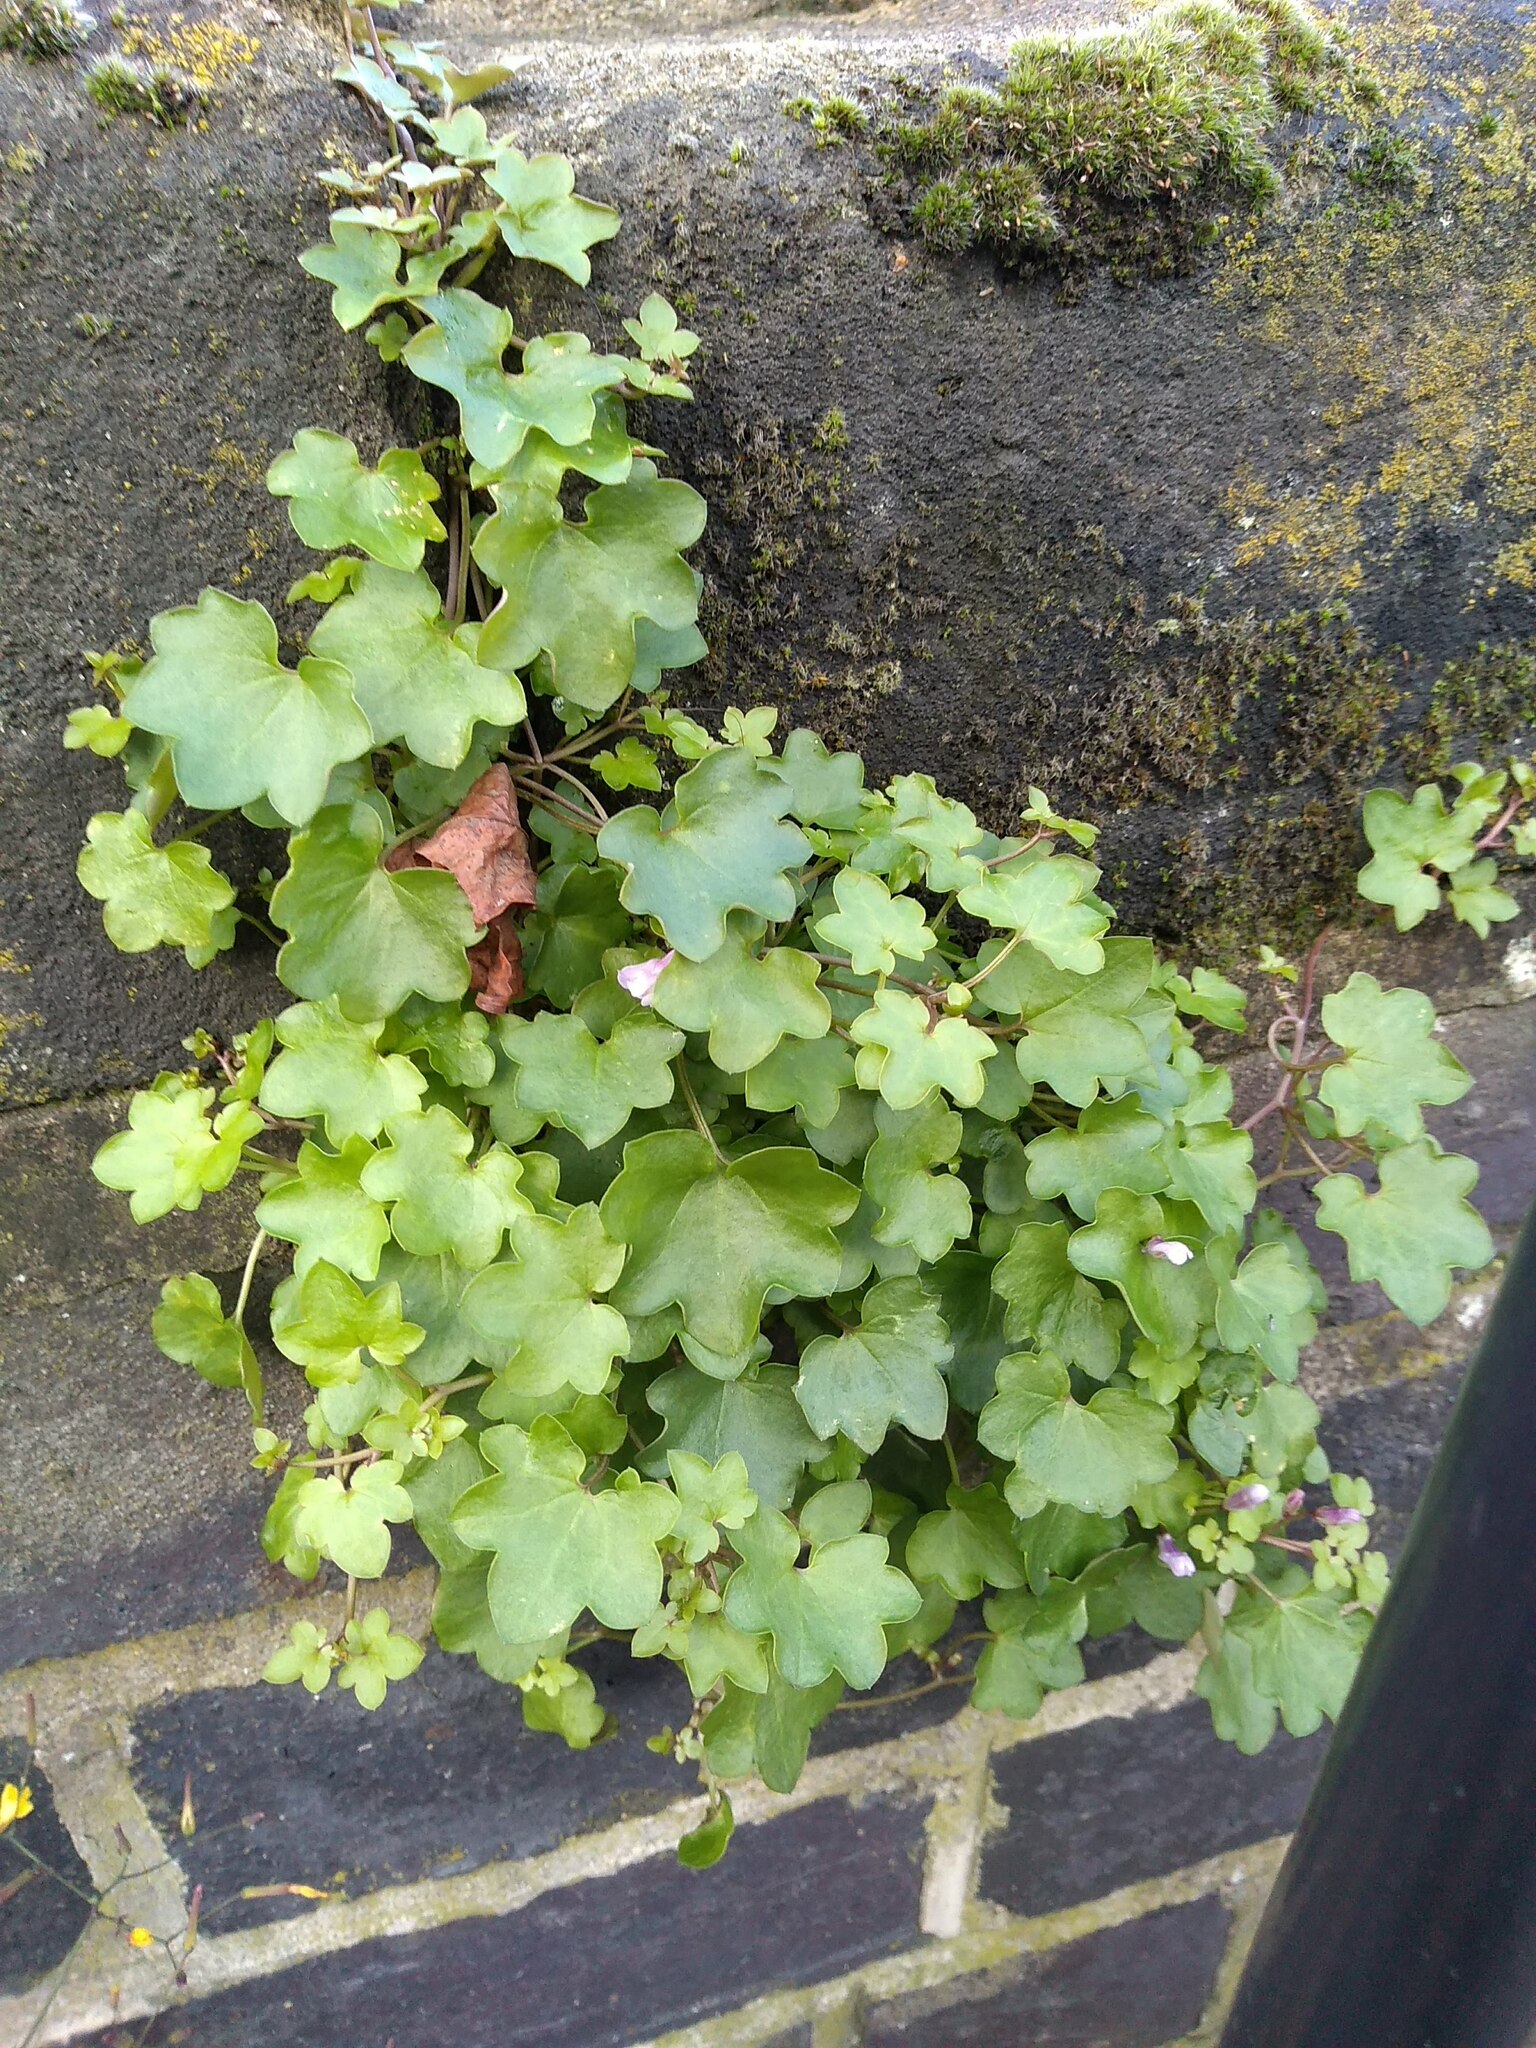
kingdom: Plantae
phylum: Tracheophyta
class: Magnoliopsida
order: Lamiales
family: Plantaginaceae
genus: Cymbalaria
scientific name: Cymbalaria muralis
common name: Ivy-leaved toadflax
